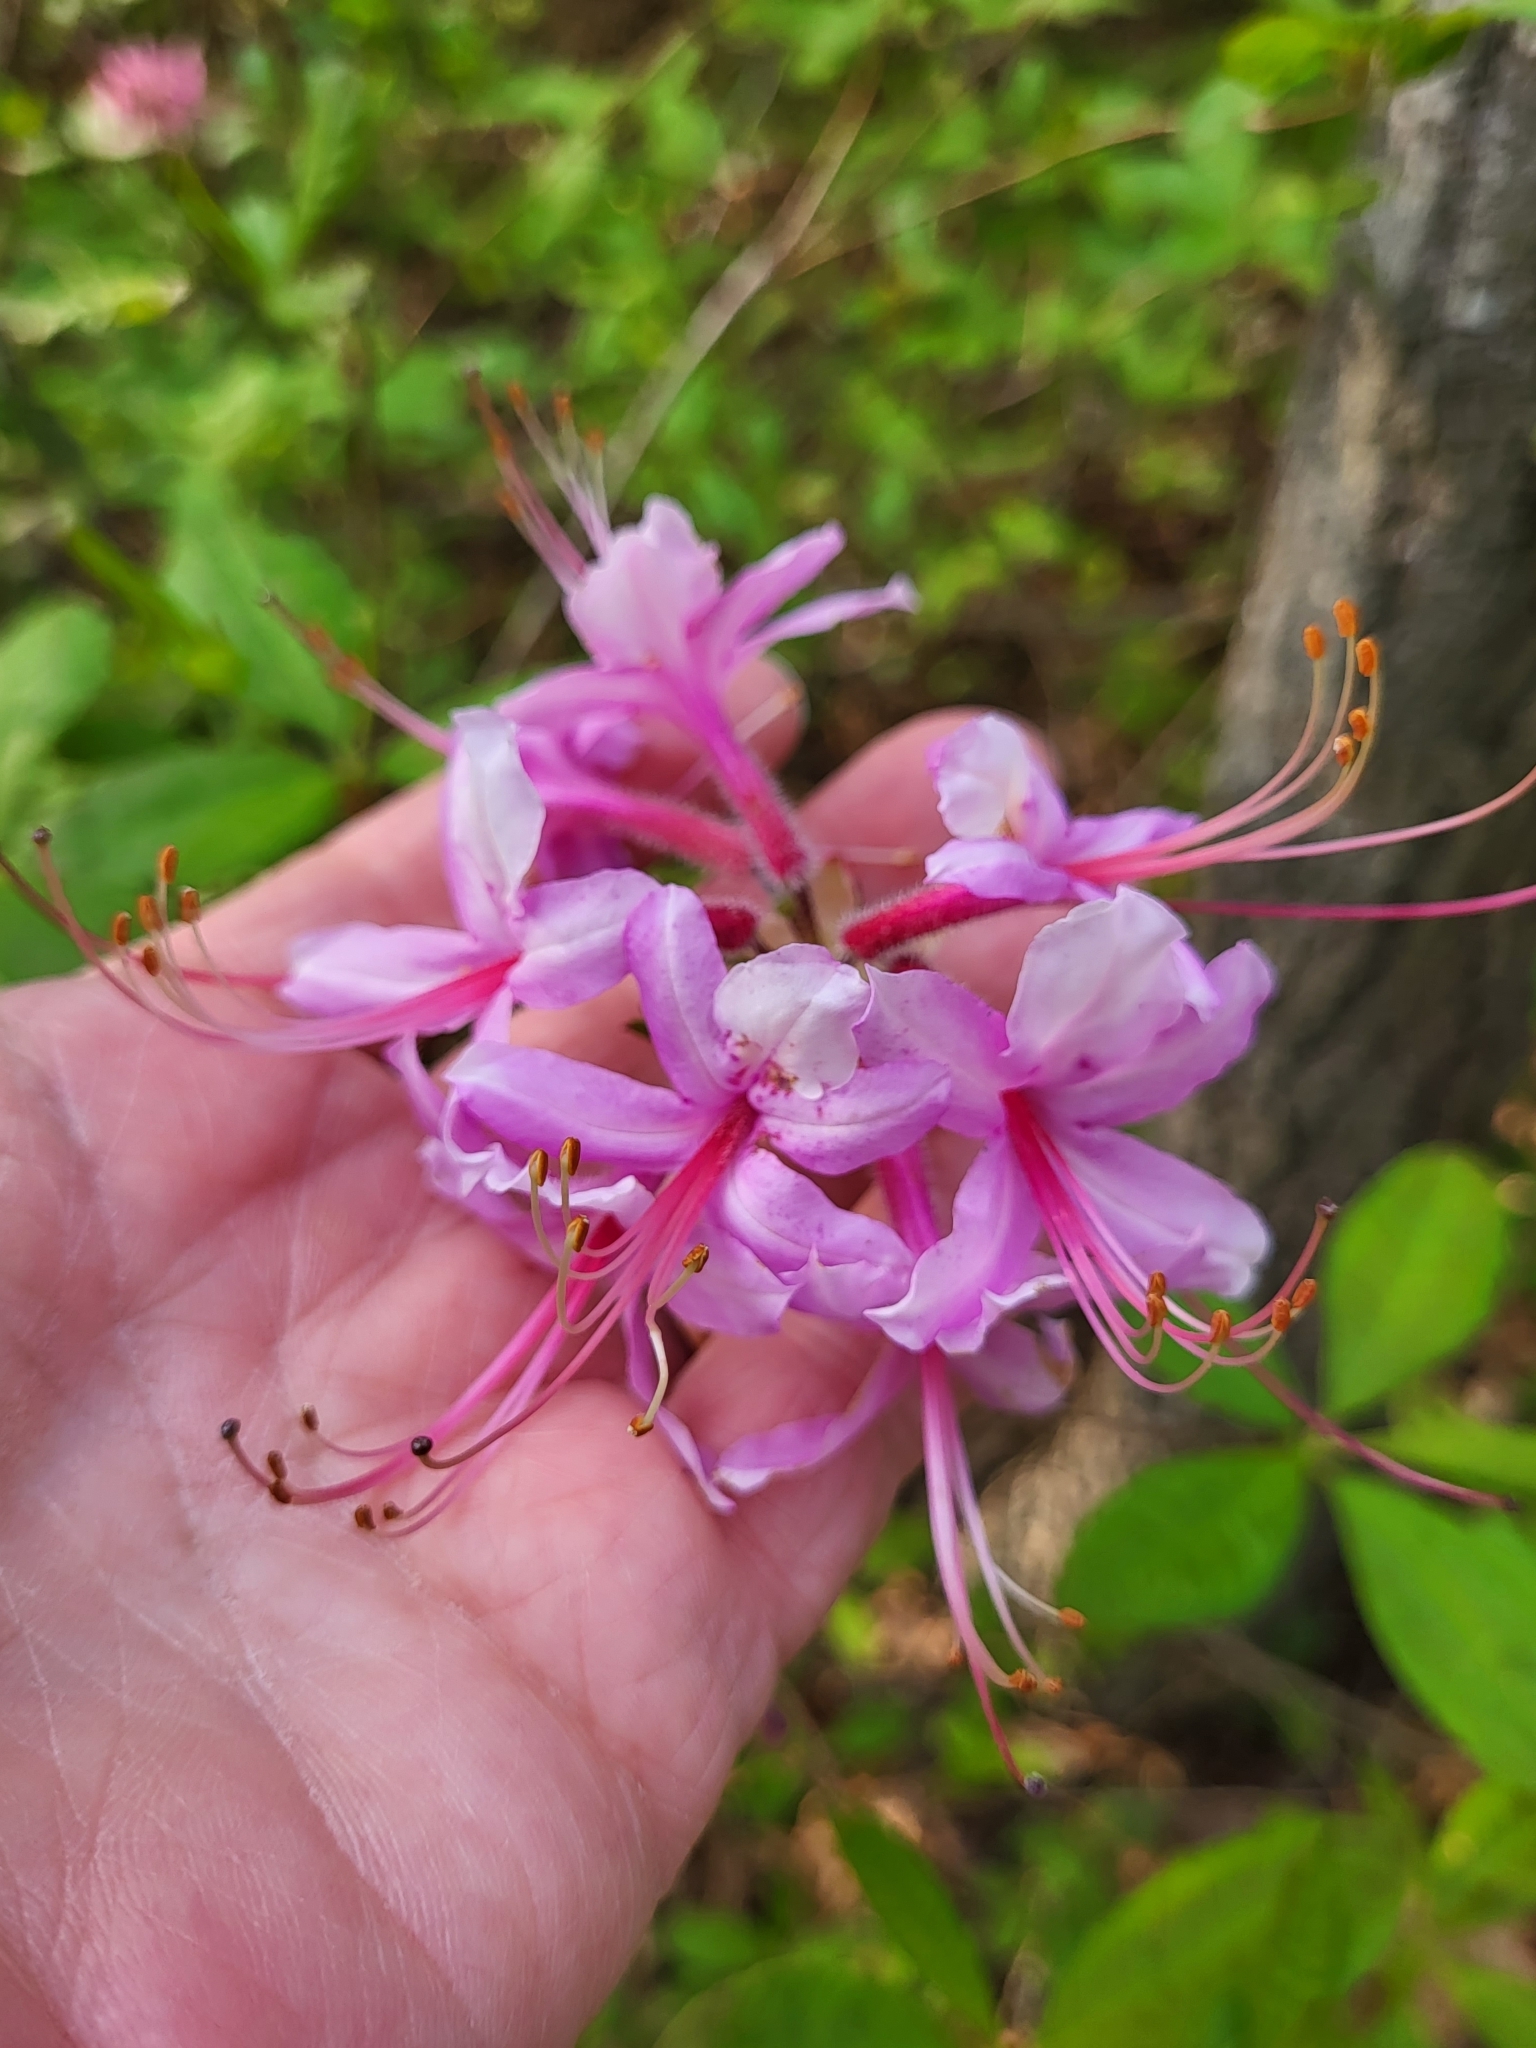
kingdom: Plantae
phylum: Tracheophyta
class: Magnoliopsida
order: Ericales
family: Ericaceae
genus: Rhododendron
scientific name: Rhododendron periclymenoides
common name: Election-pink
